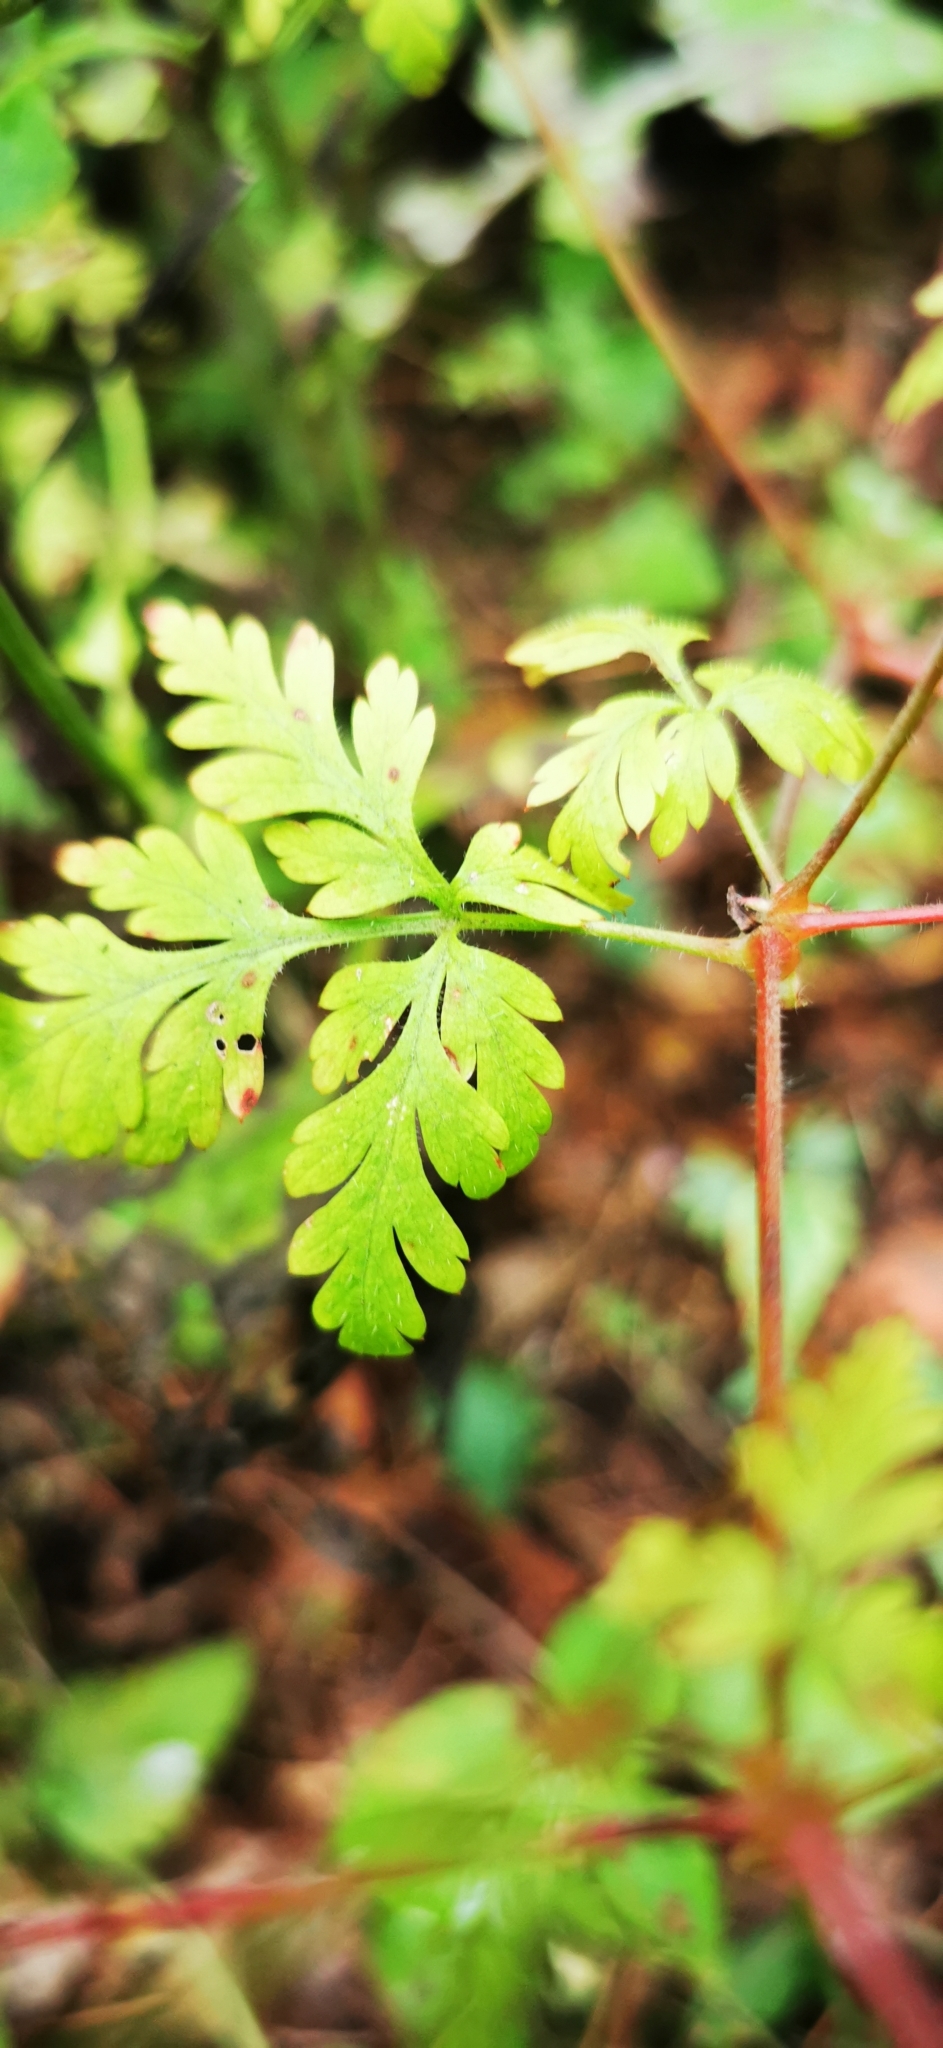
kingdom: Plantae
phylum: Tracheophyta
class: Magnoliopsida
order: Geraniales
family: Geraniaceae
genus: Geranium
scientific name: Geranium robertianum
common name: Herb-robert
